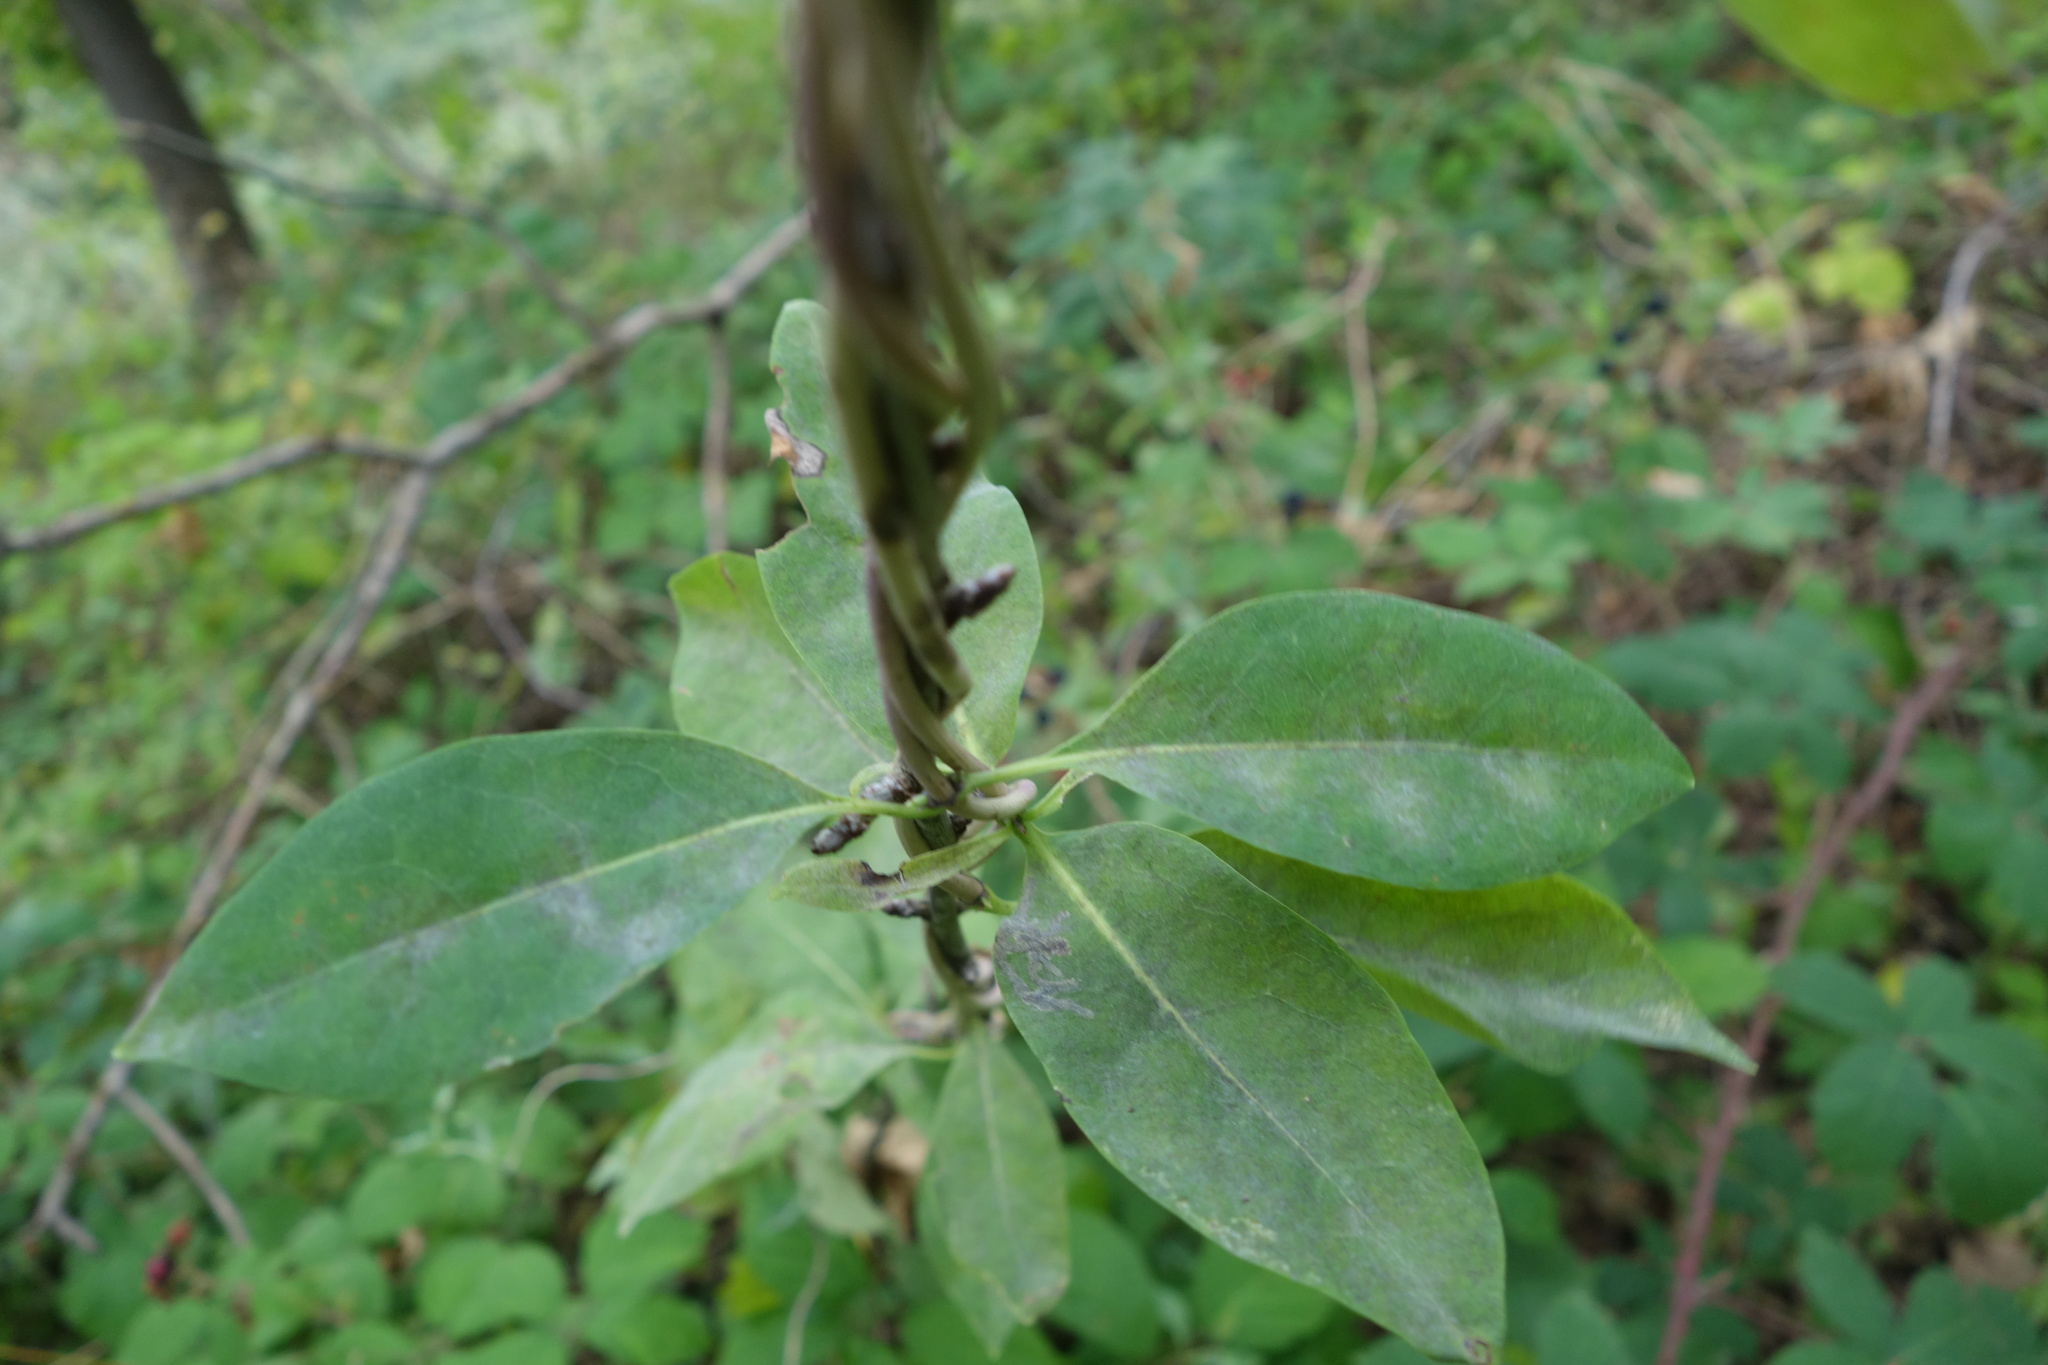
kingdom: Plantae
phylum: Tracheophyta
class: Magnoliopsida
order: Dipsacales
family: Caprifoliaceae
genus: Lonicera
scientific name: Lonicera periclymenum
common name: European honeysuckle
